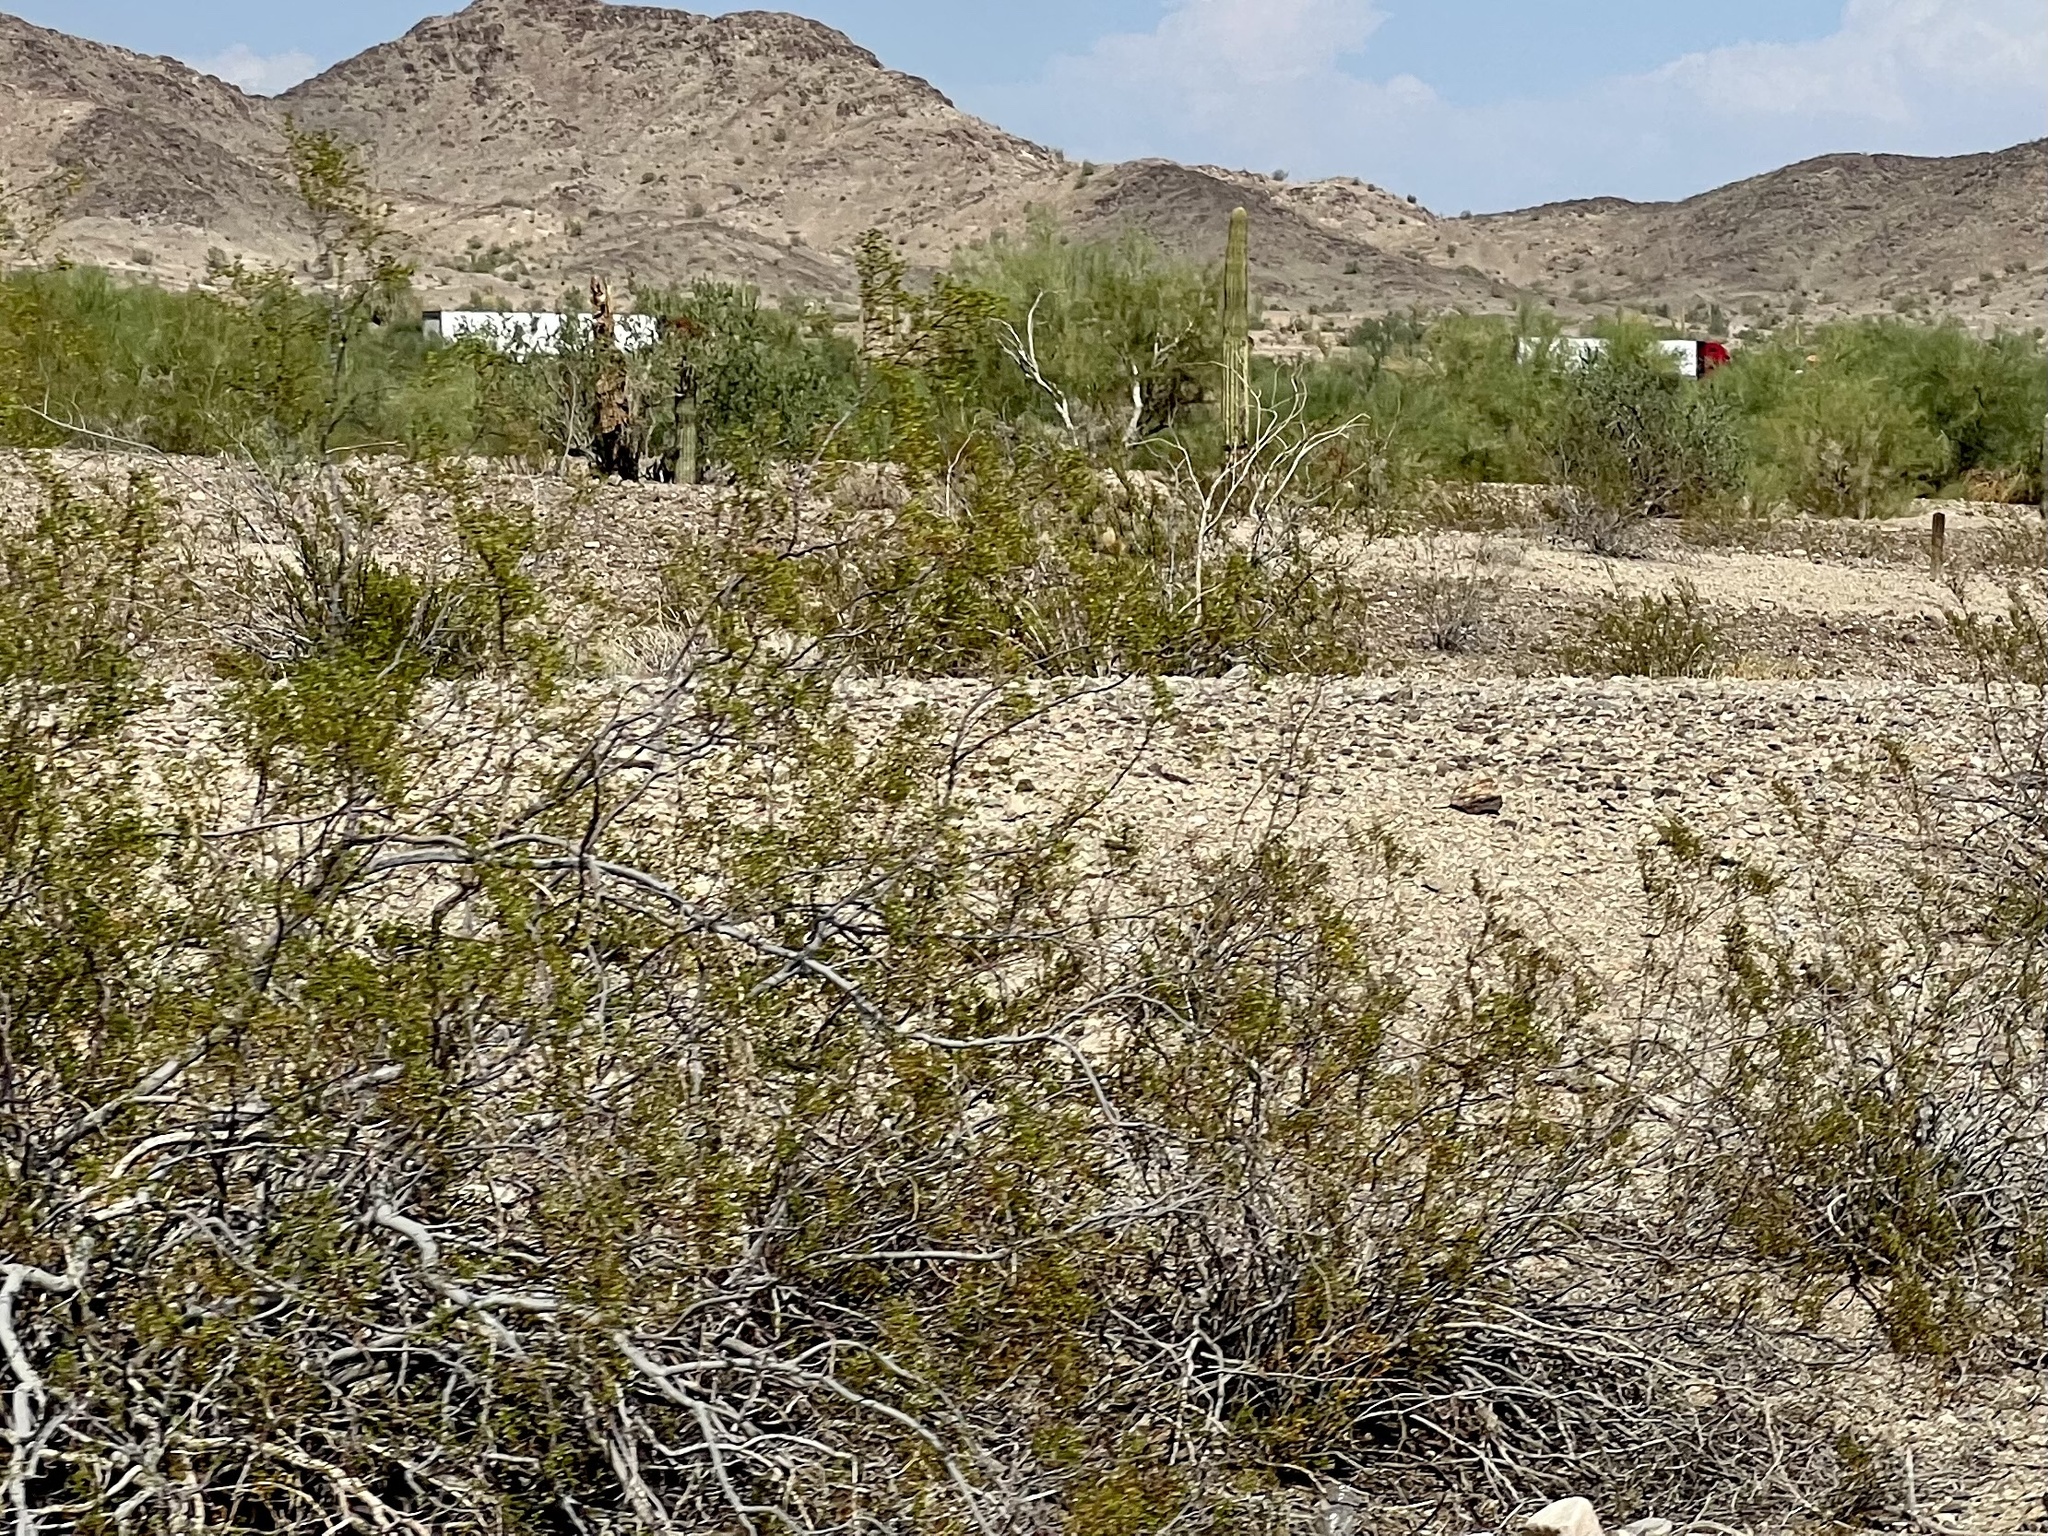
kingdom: Plantae
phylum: Tracheophyta
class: Magnoliopsida
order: Zygophyllales
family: Zygophyllaceae
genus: Larrea
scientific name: Larrea tridentata
